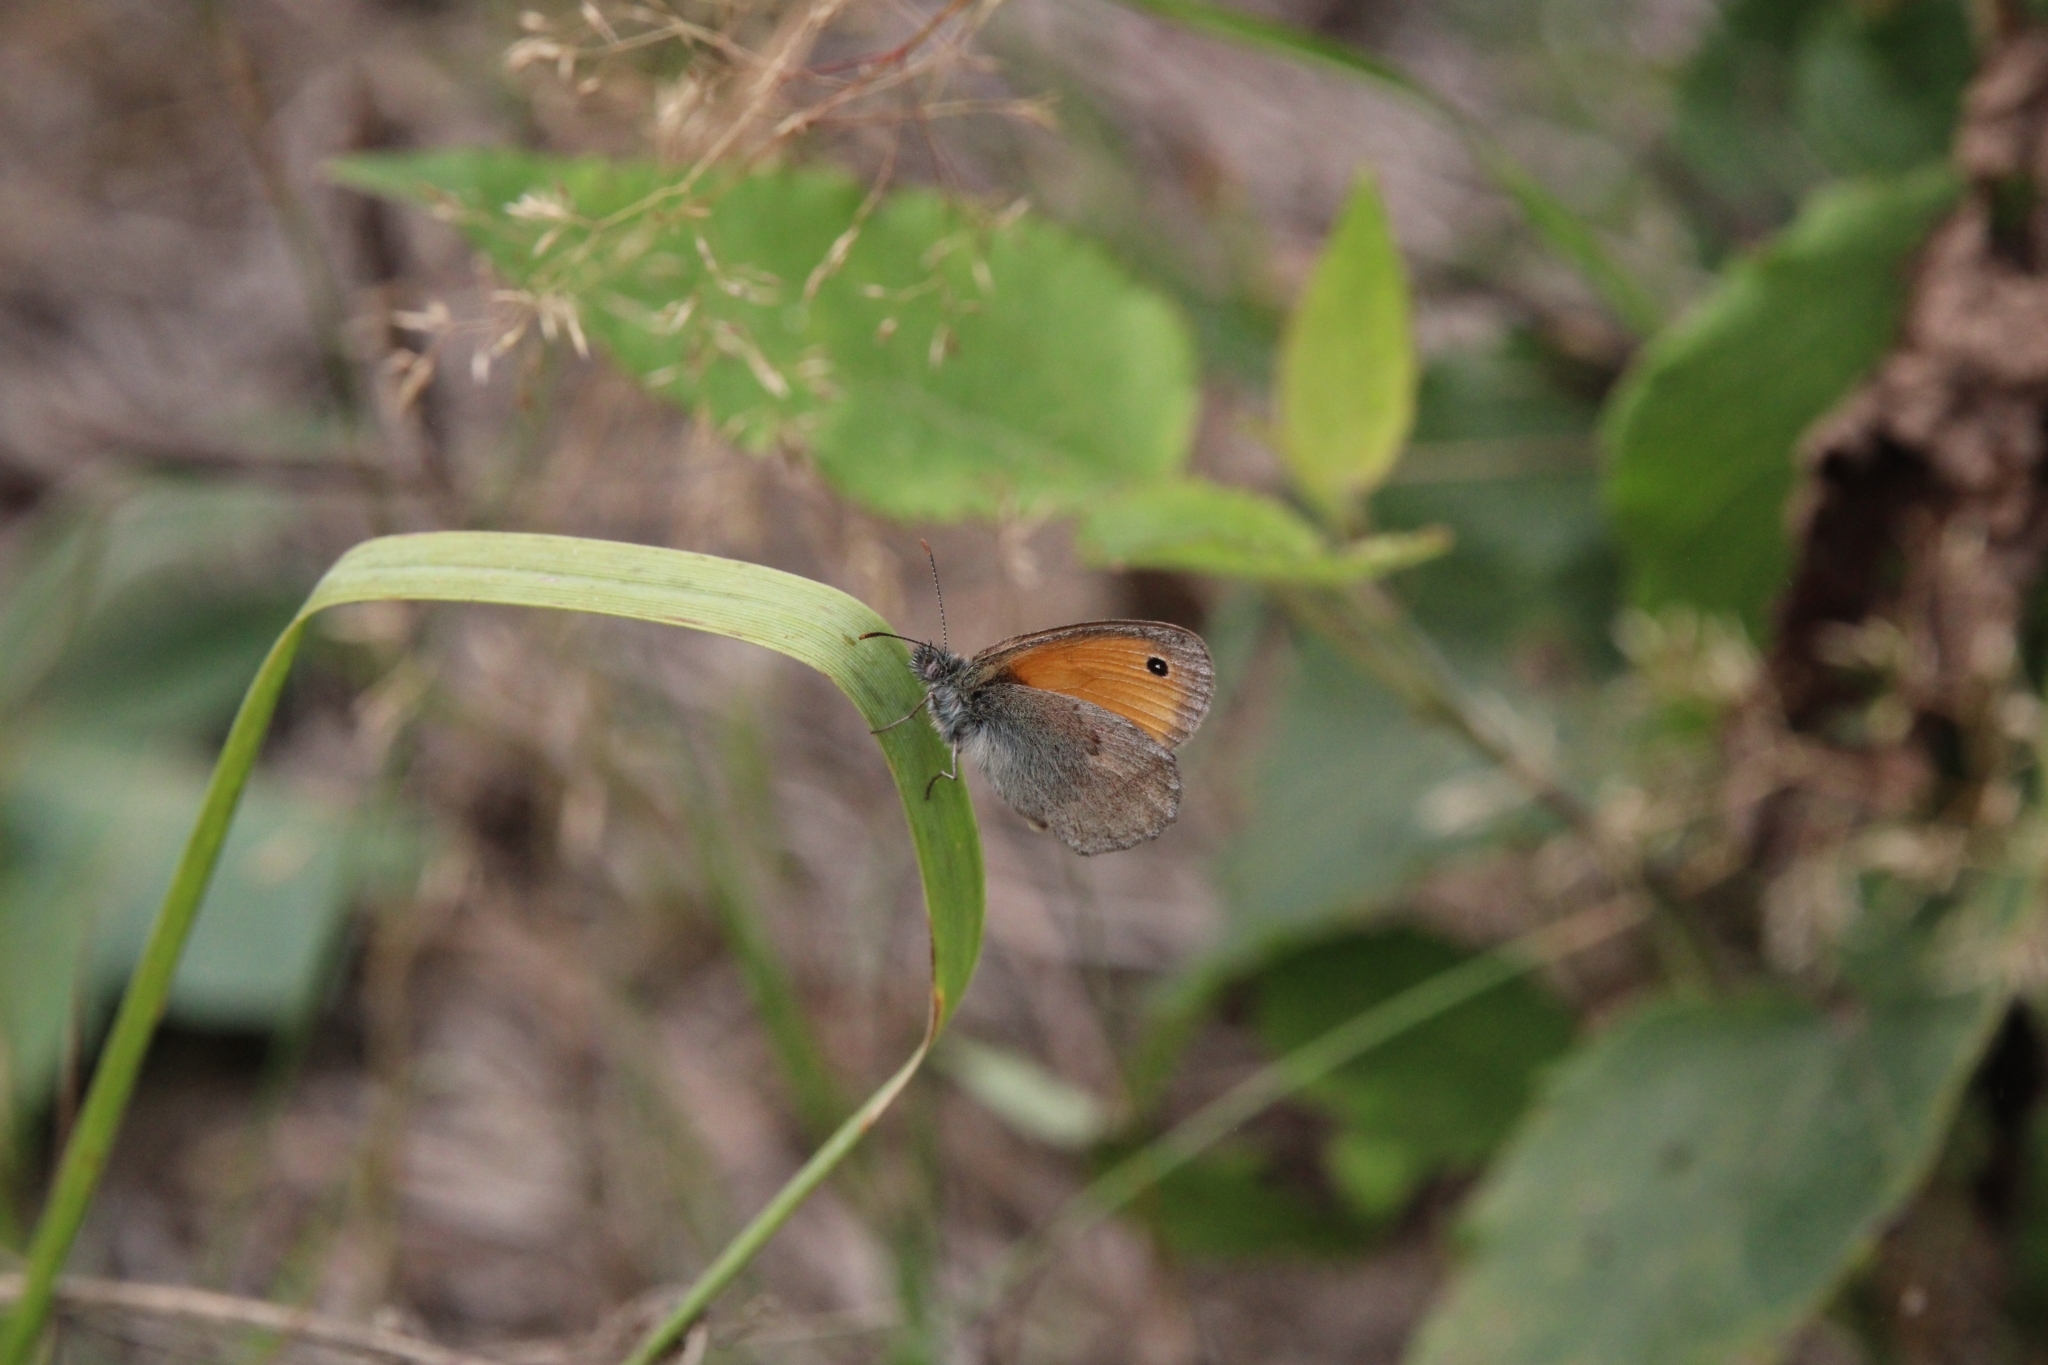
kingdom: Animalia
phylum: Arthropoda
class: Insecta
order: Lepidoptera
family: Nymphalidae
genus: Coenonympha
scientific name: Coenonympha pamphilus
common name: Small heath
